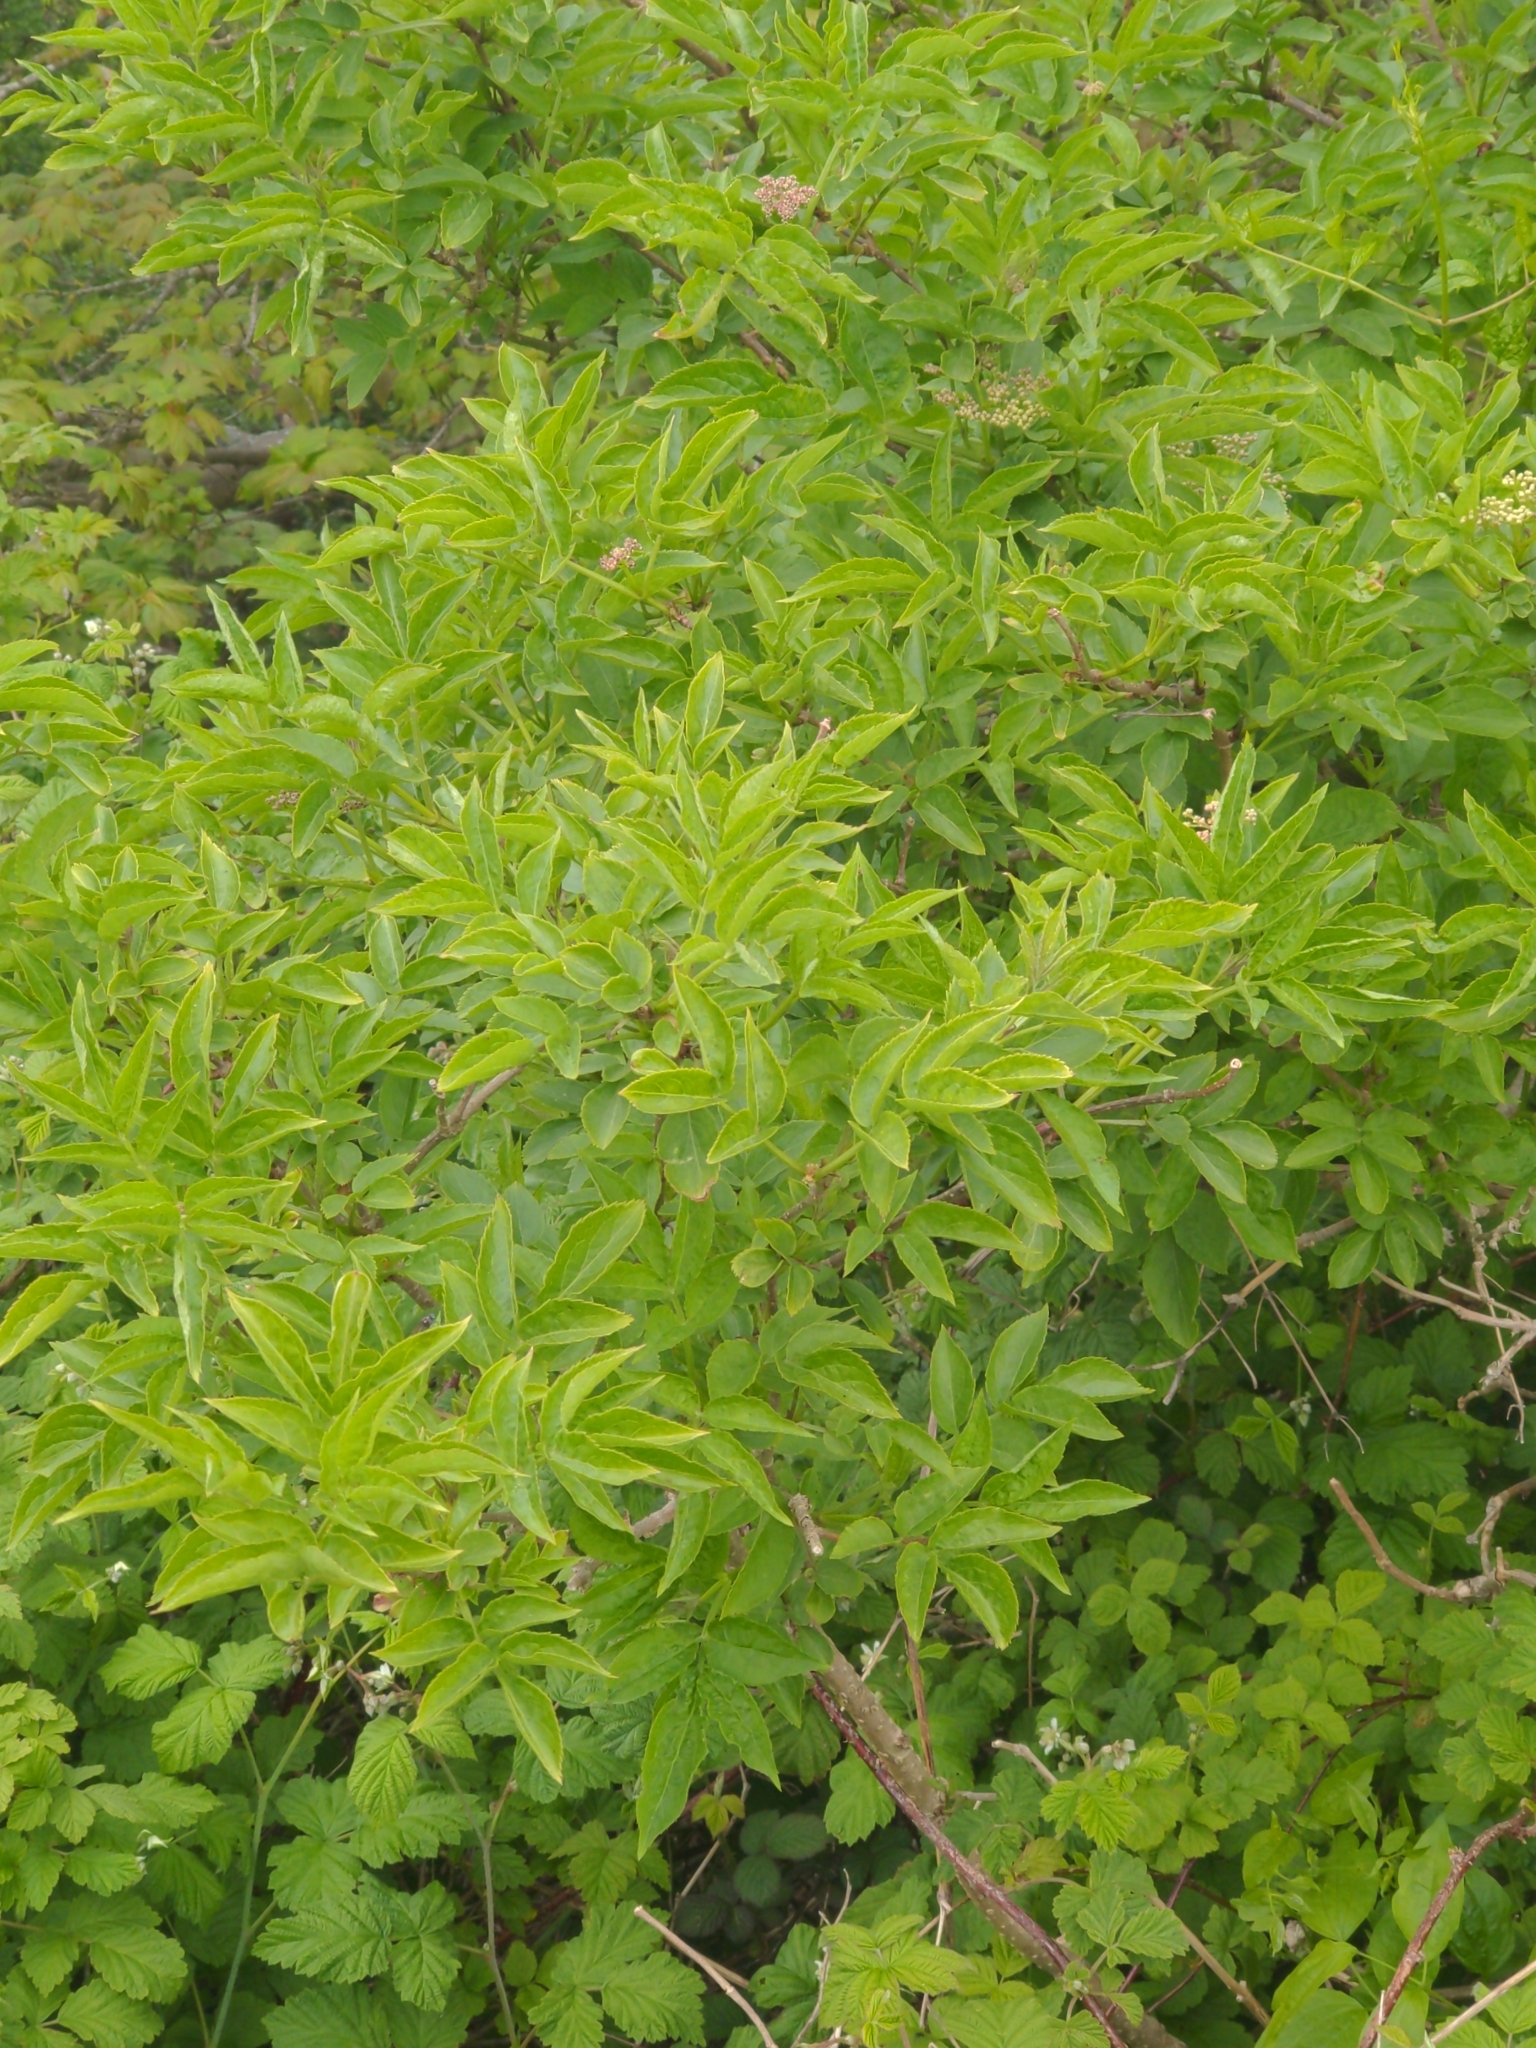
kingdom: Plantae
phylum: Tracheophyta
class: Magnoliopsida
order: Dipsacales
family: Viburnaceae
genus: Sambucus
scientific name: Sambucus nigra
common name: Elder
